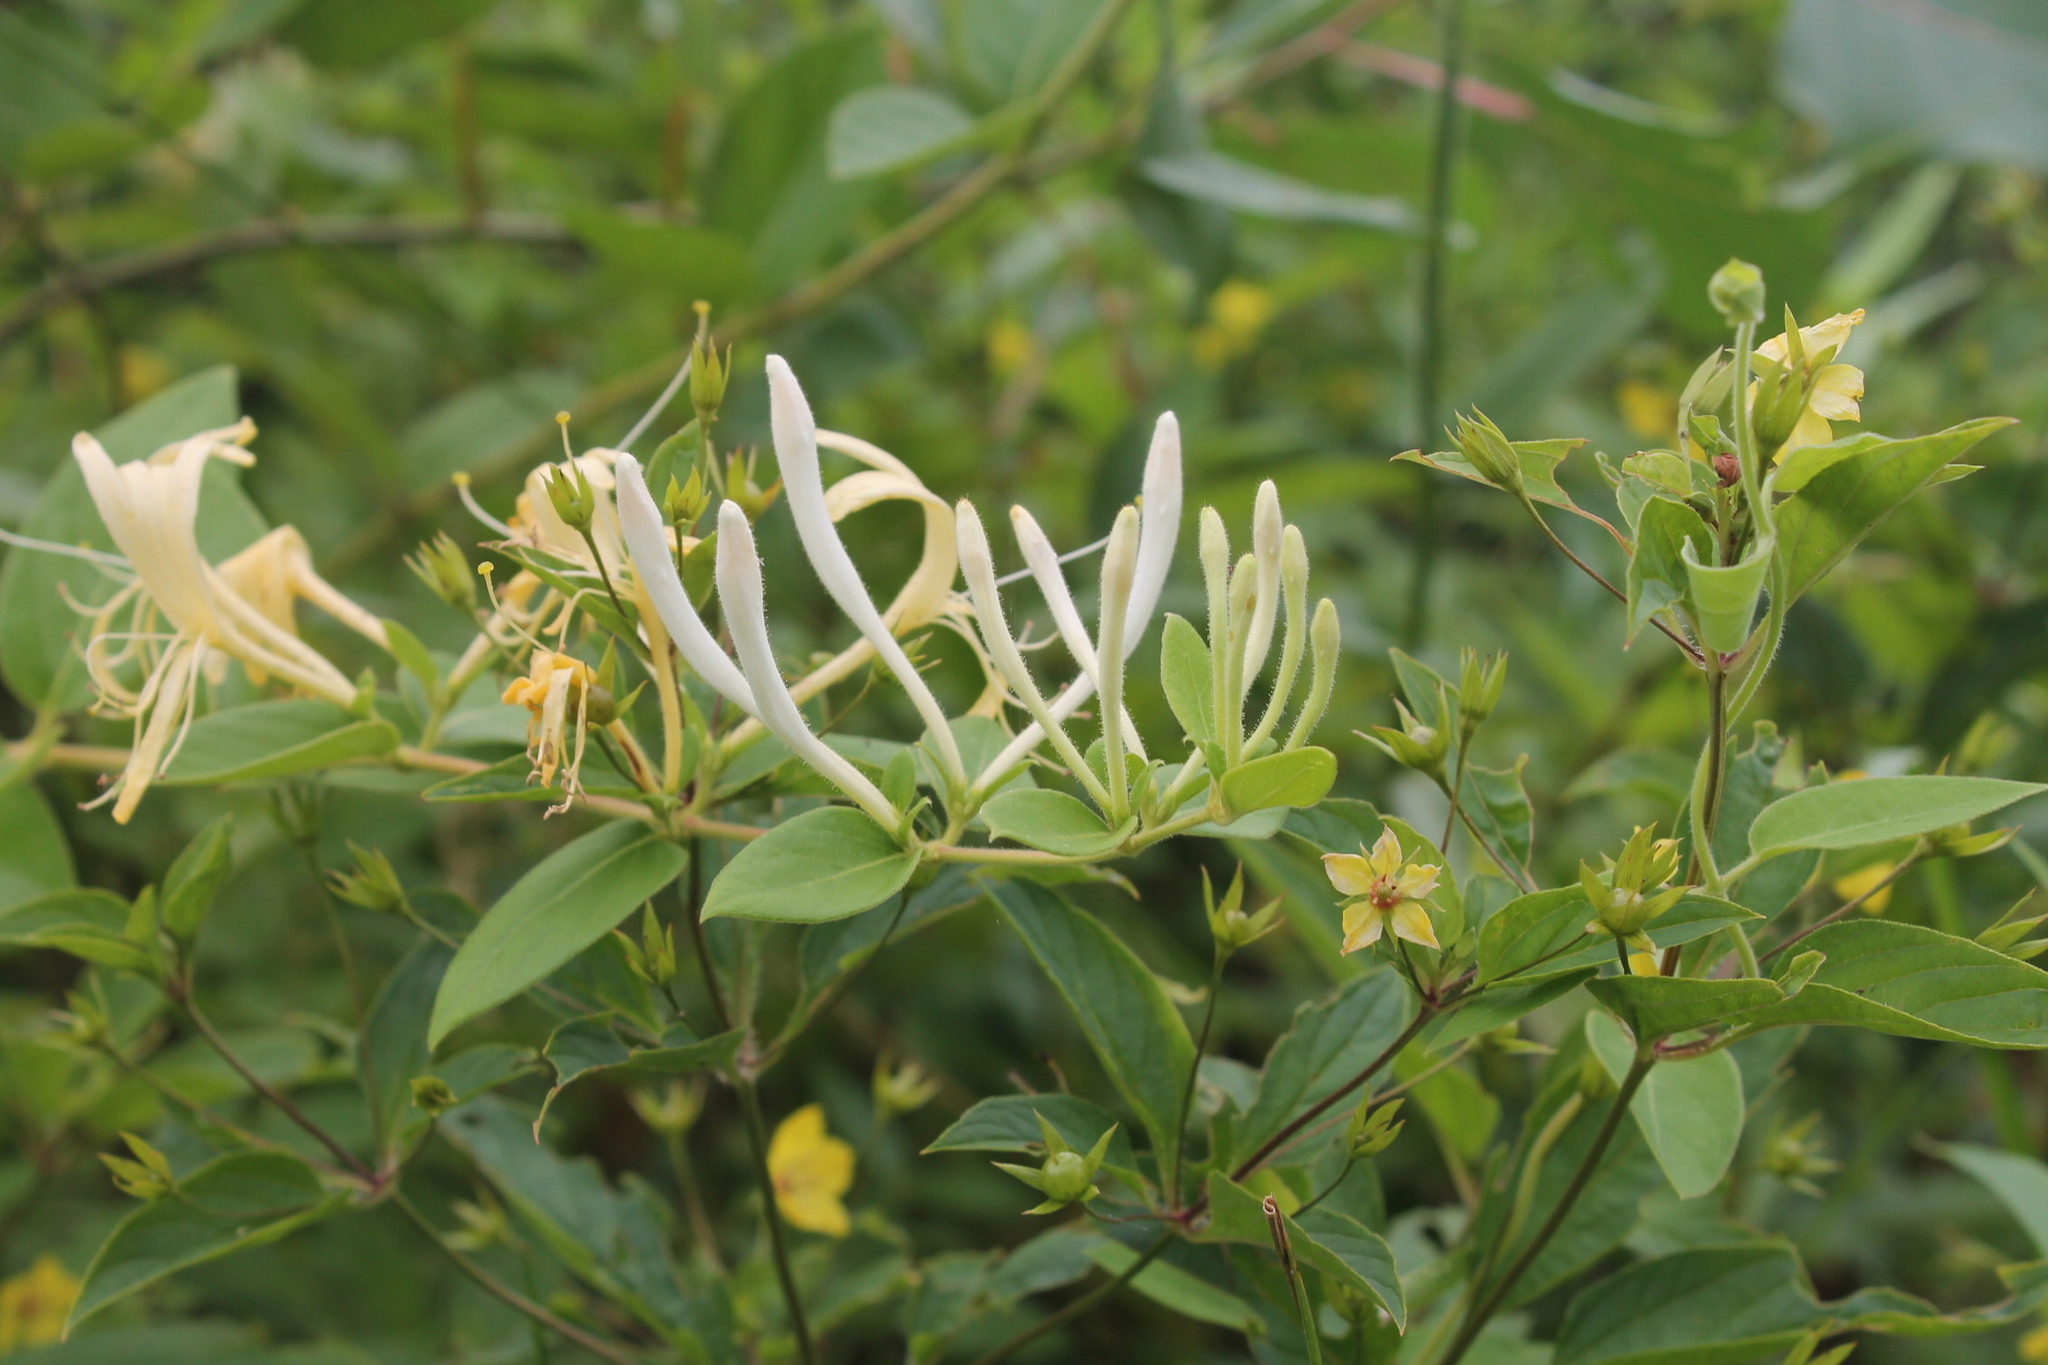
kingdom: Plantae
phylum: Tracheophyta
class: Magnoliopsida
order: Dipsacales
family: Caprifoliaceae
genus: Lonicera
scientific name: Lonicera japonica
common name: Japanese honeysuckle
